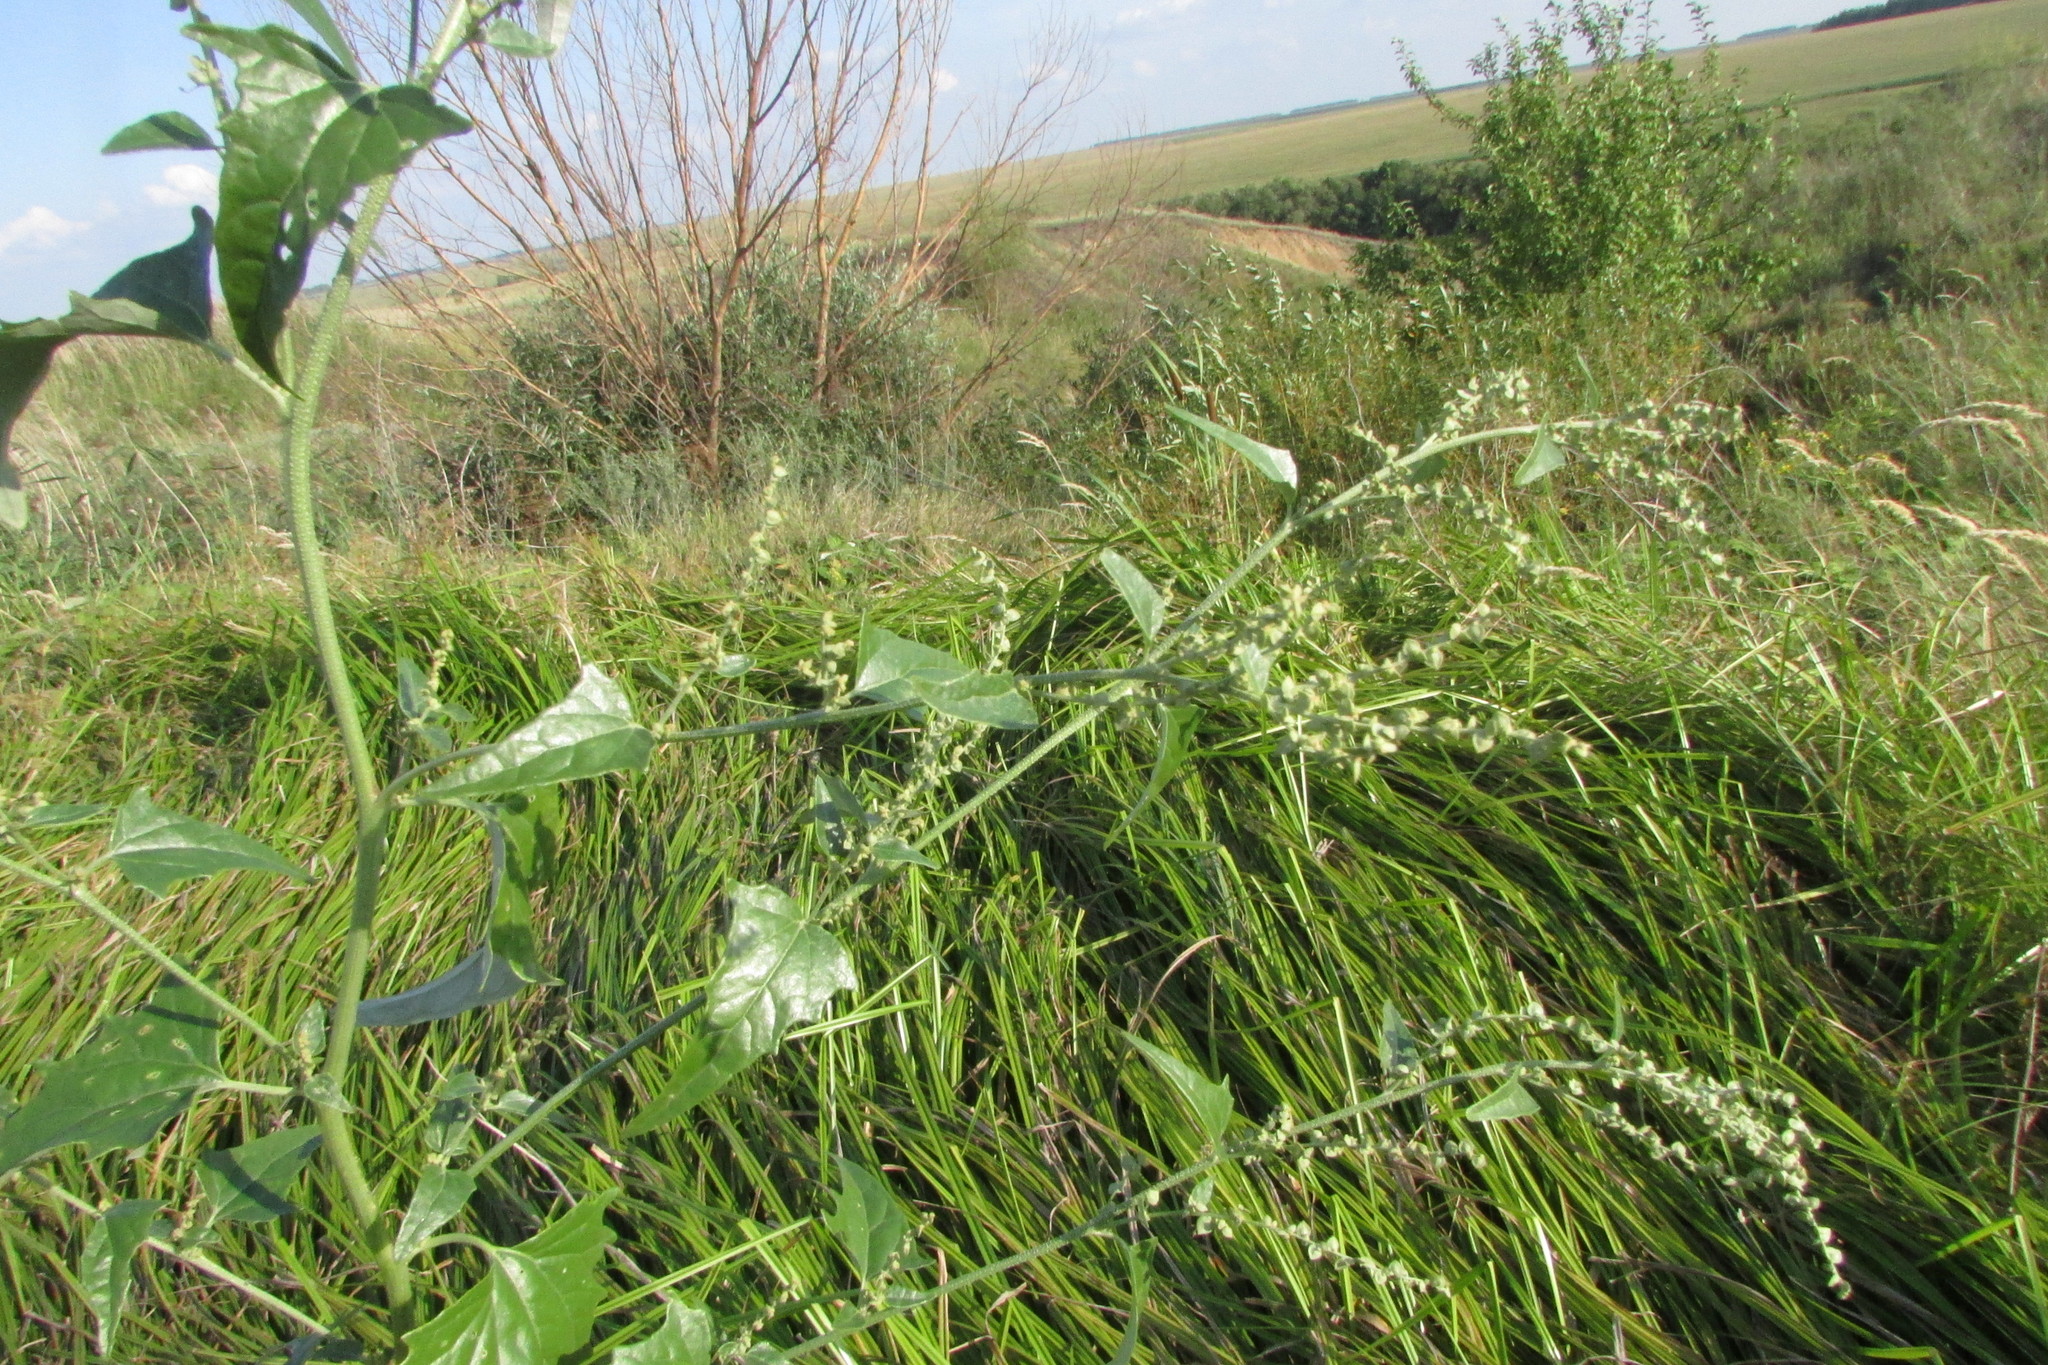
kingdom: Plantae
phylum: Tracheophyta
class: Magnoliopsida
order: Caryophyllales
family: Amaranthaceae
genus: Atriplex
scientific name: Atriplex sagittata
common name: Purple orache
